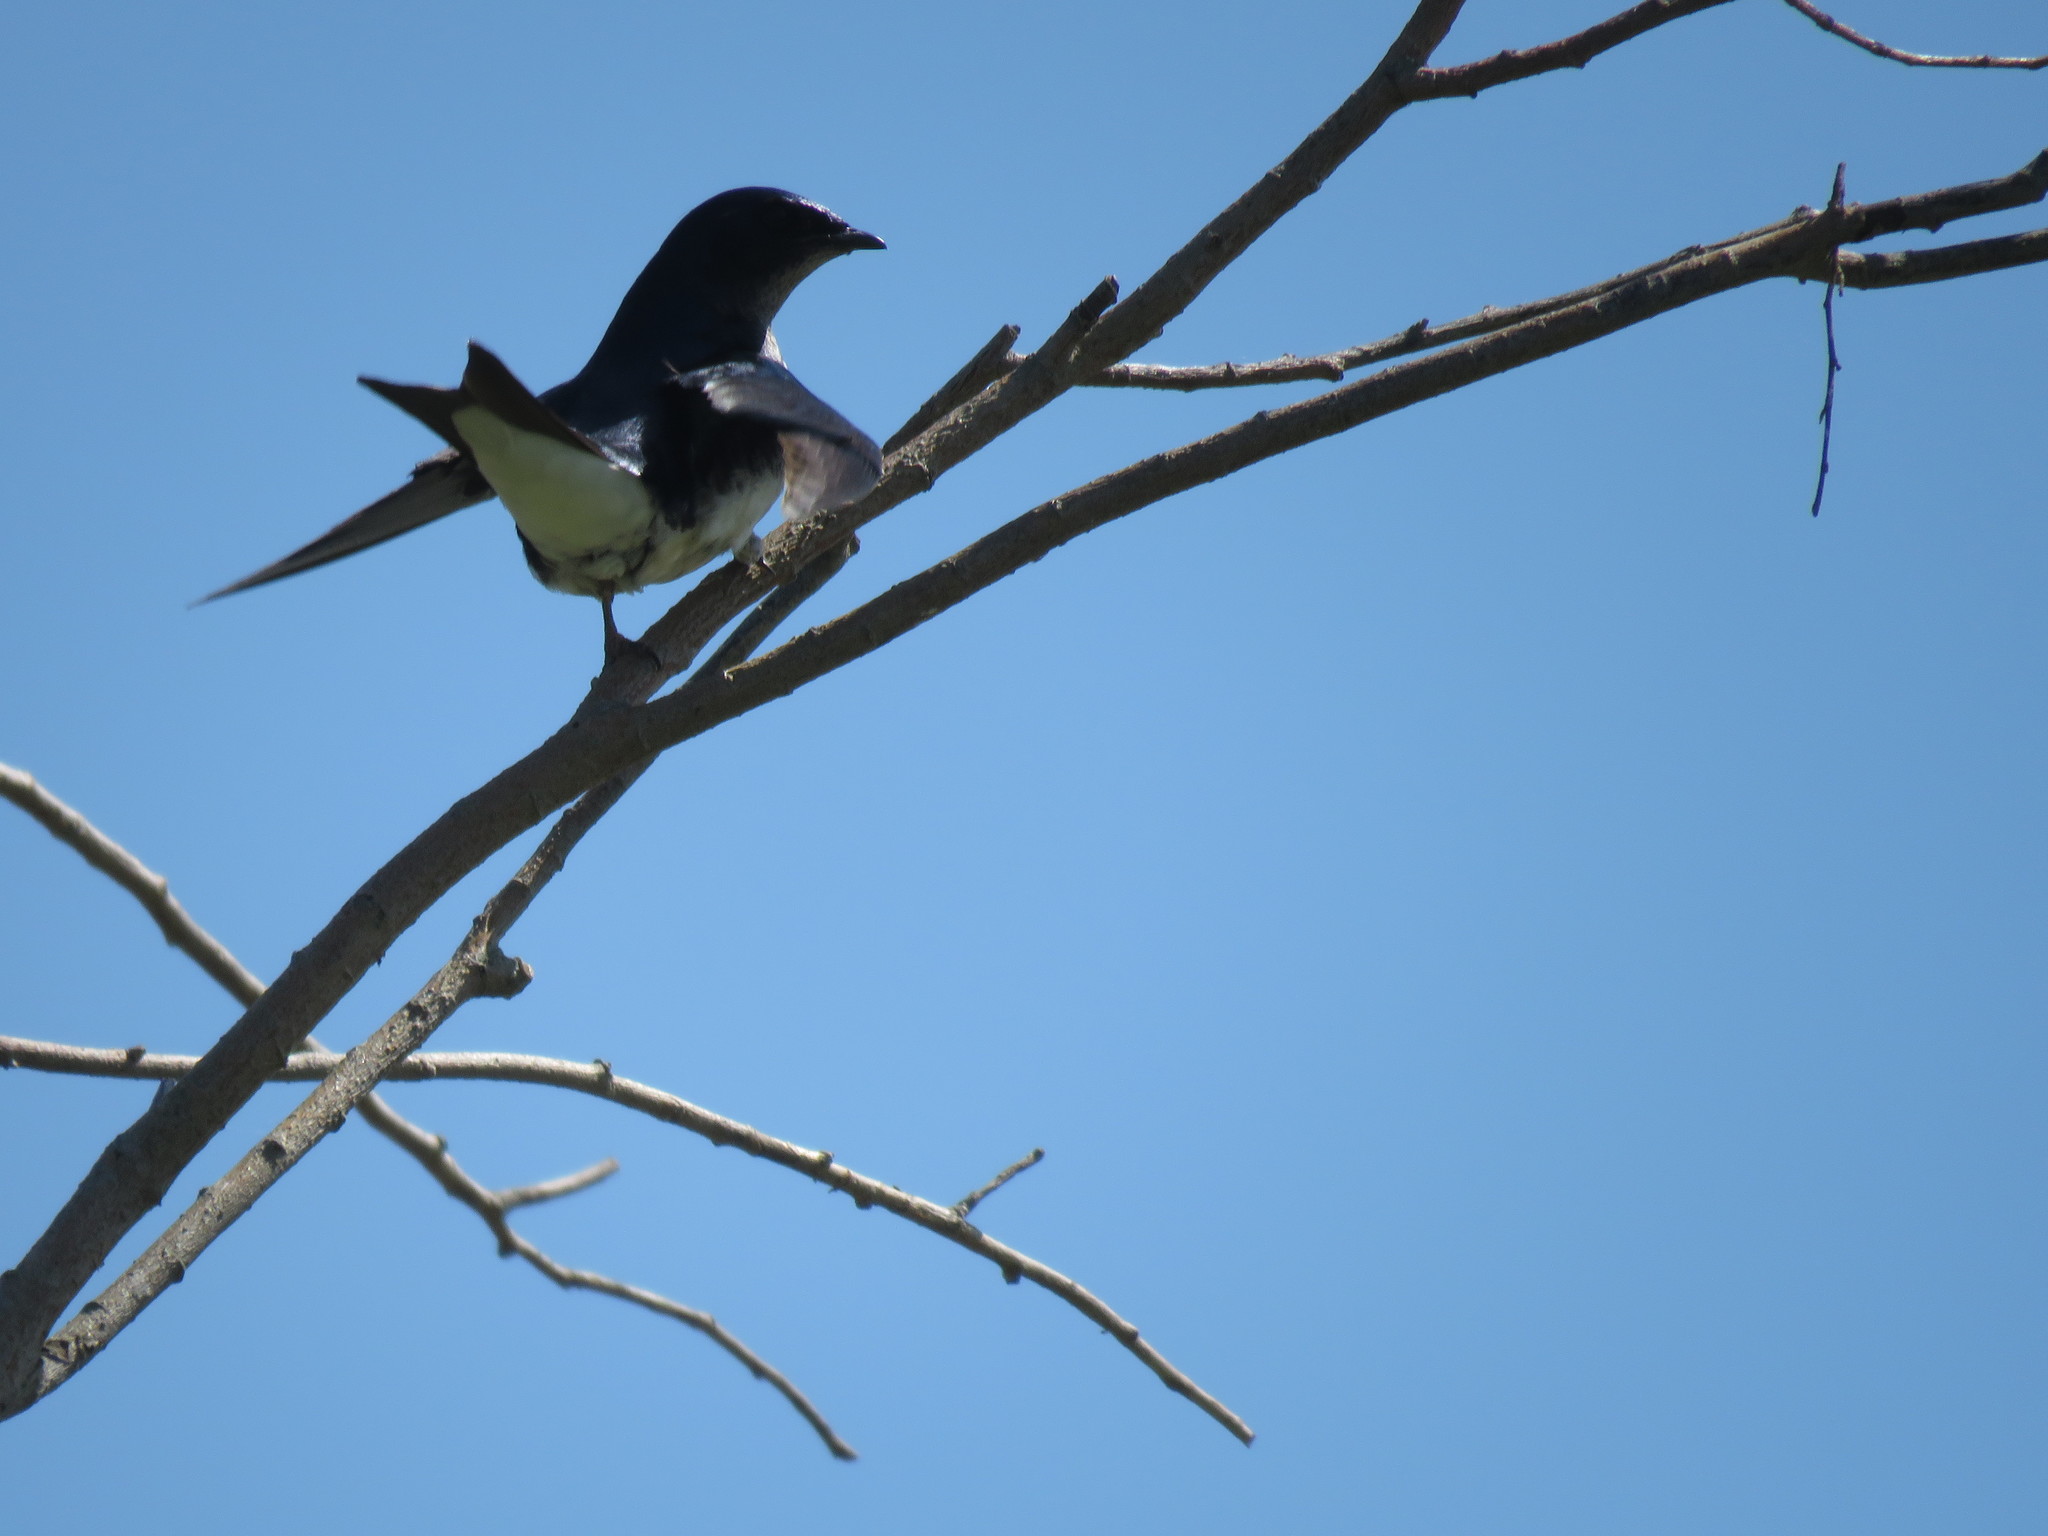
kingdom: Animalia
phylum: Chordata
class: Aves
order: Passeriformes
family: Hirundinidae
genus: Progne
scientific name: Progne chalybea
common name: Grey-breasted martin
